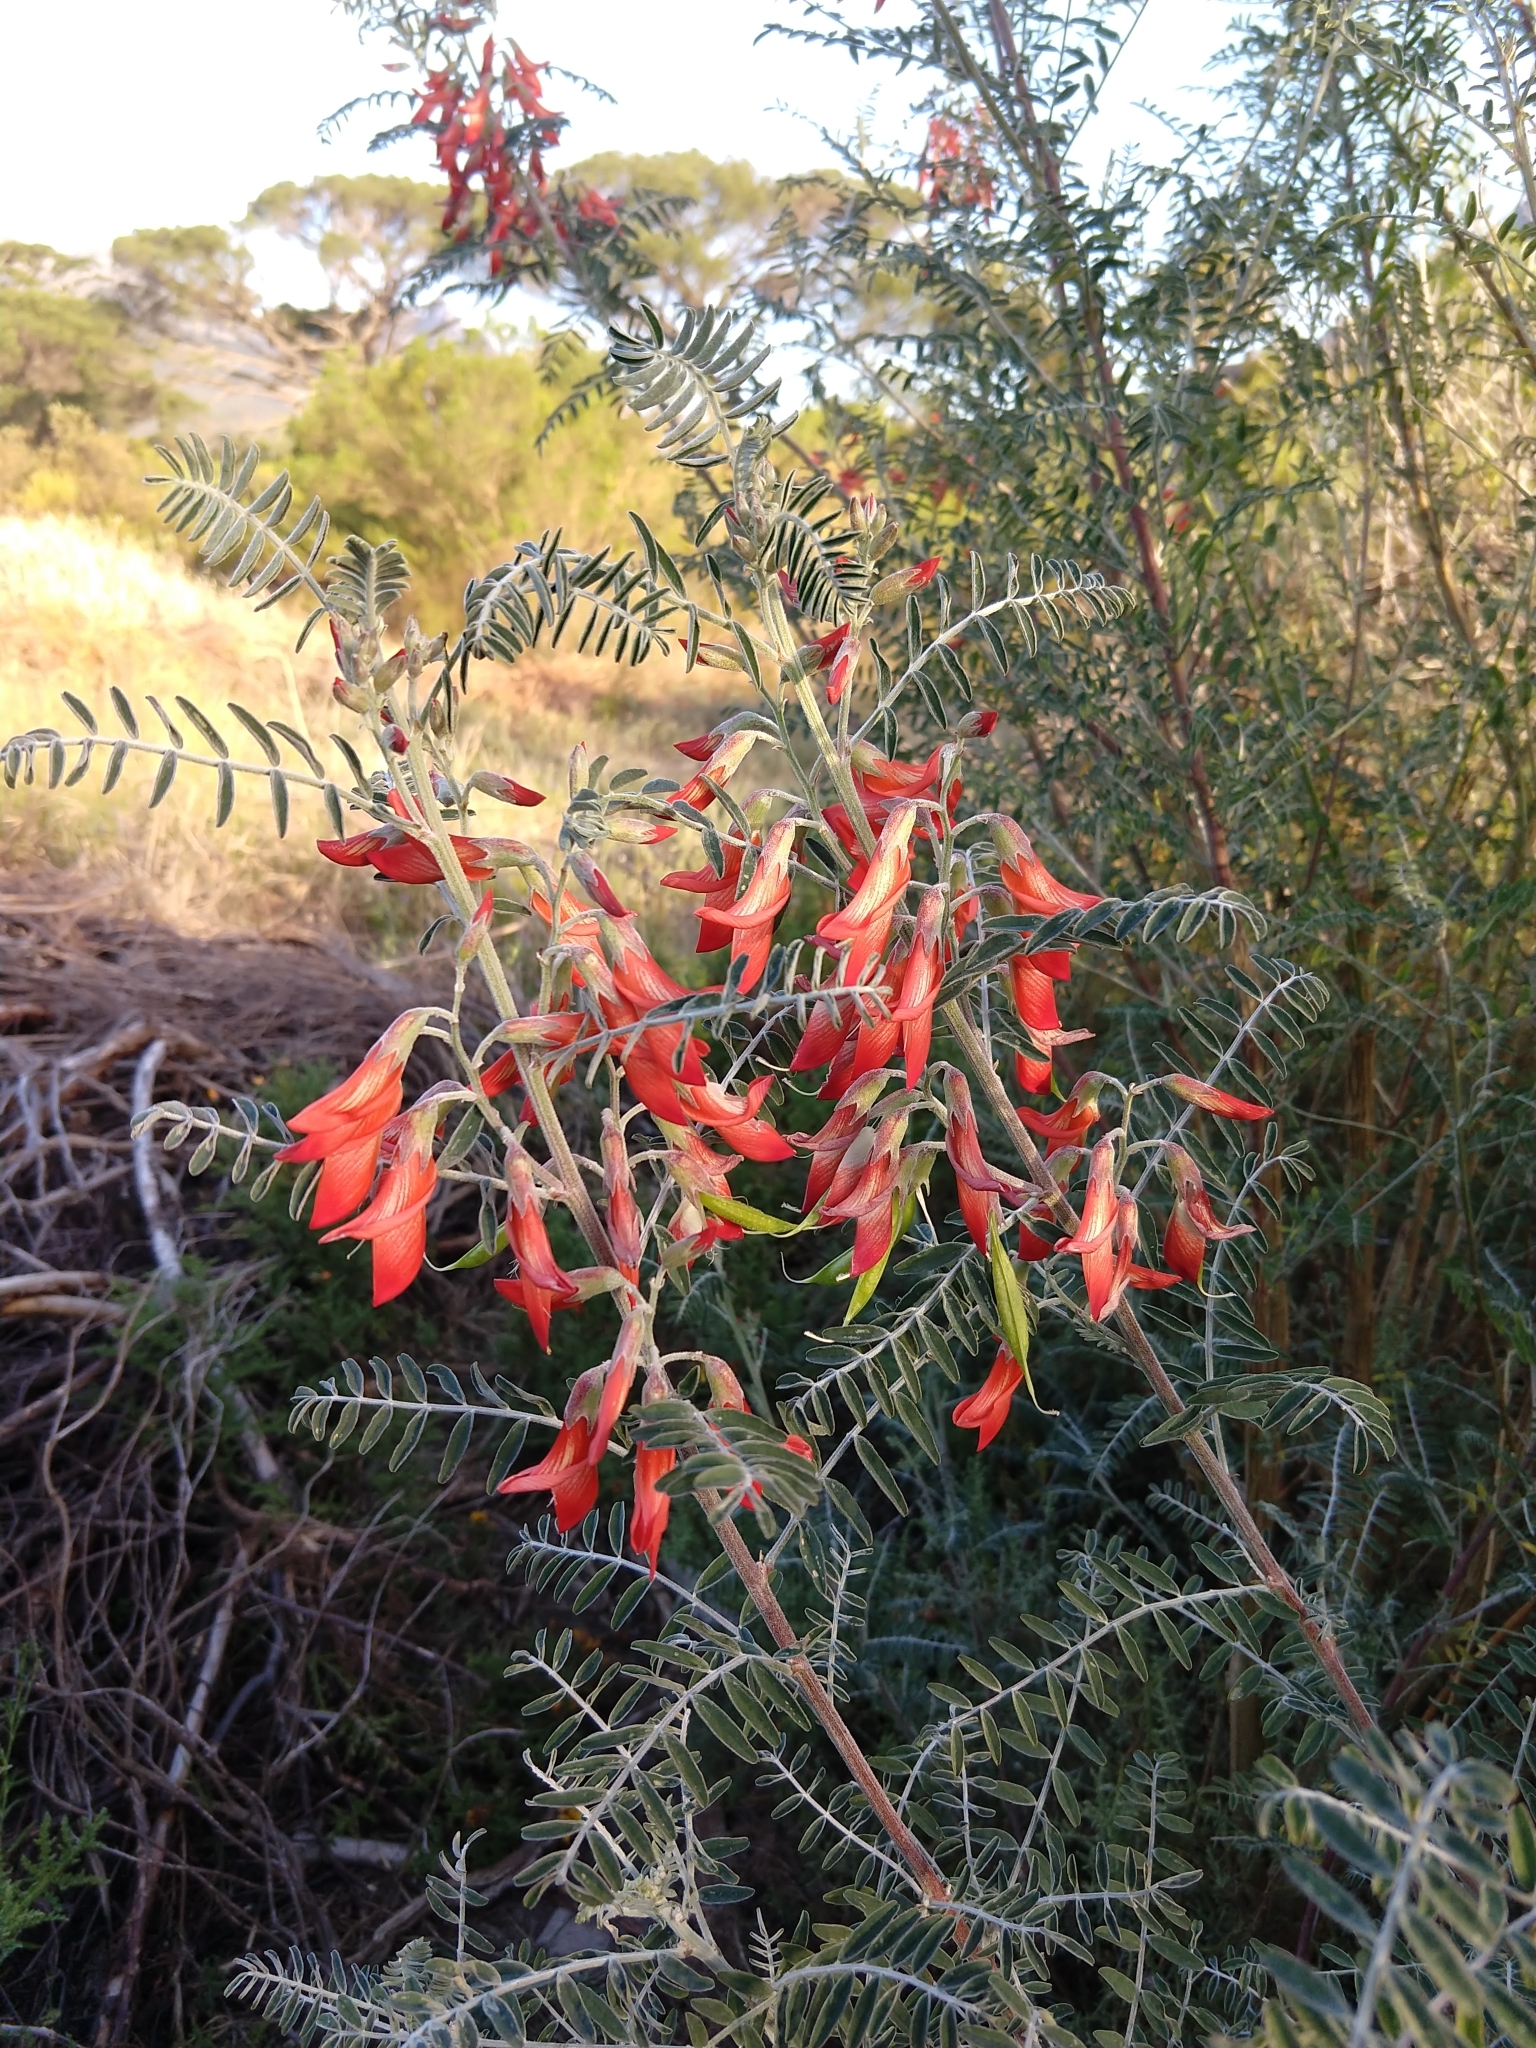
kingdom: Plantae
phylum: Tracheophyta
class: Magnoliopsida
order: Fabales
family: Fabaceae
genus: Lessertia
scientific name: Lessertia frutescens
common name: Balloon-pea
